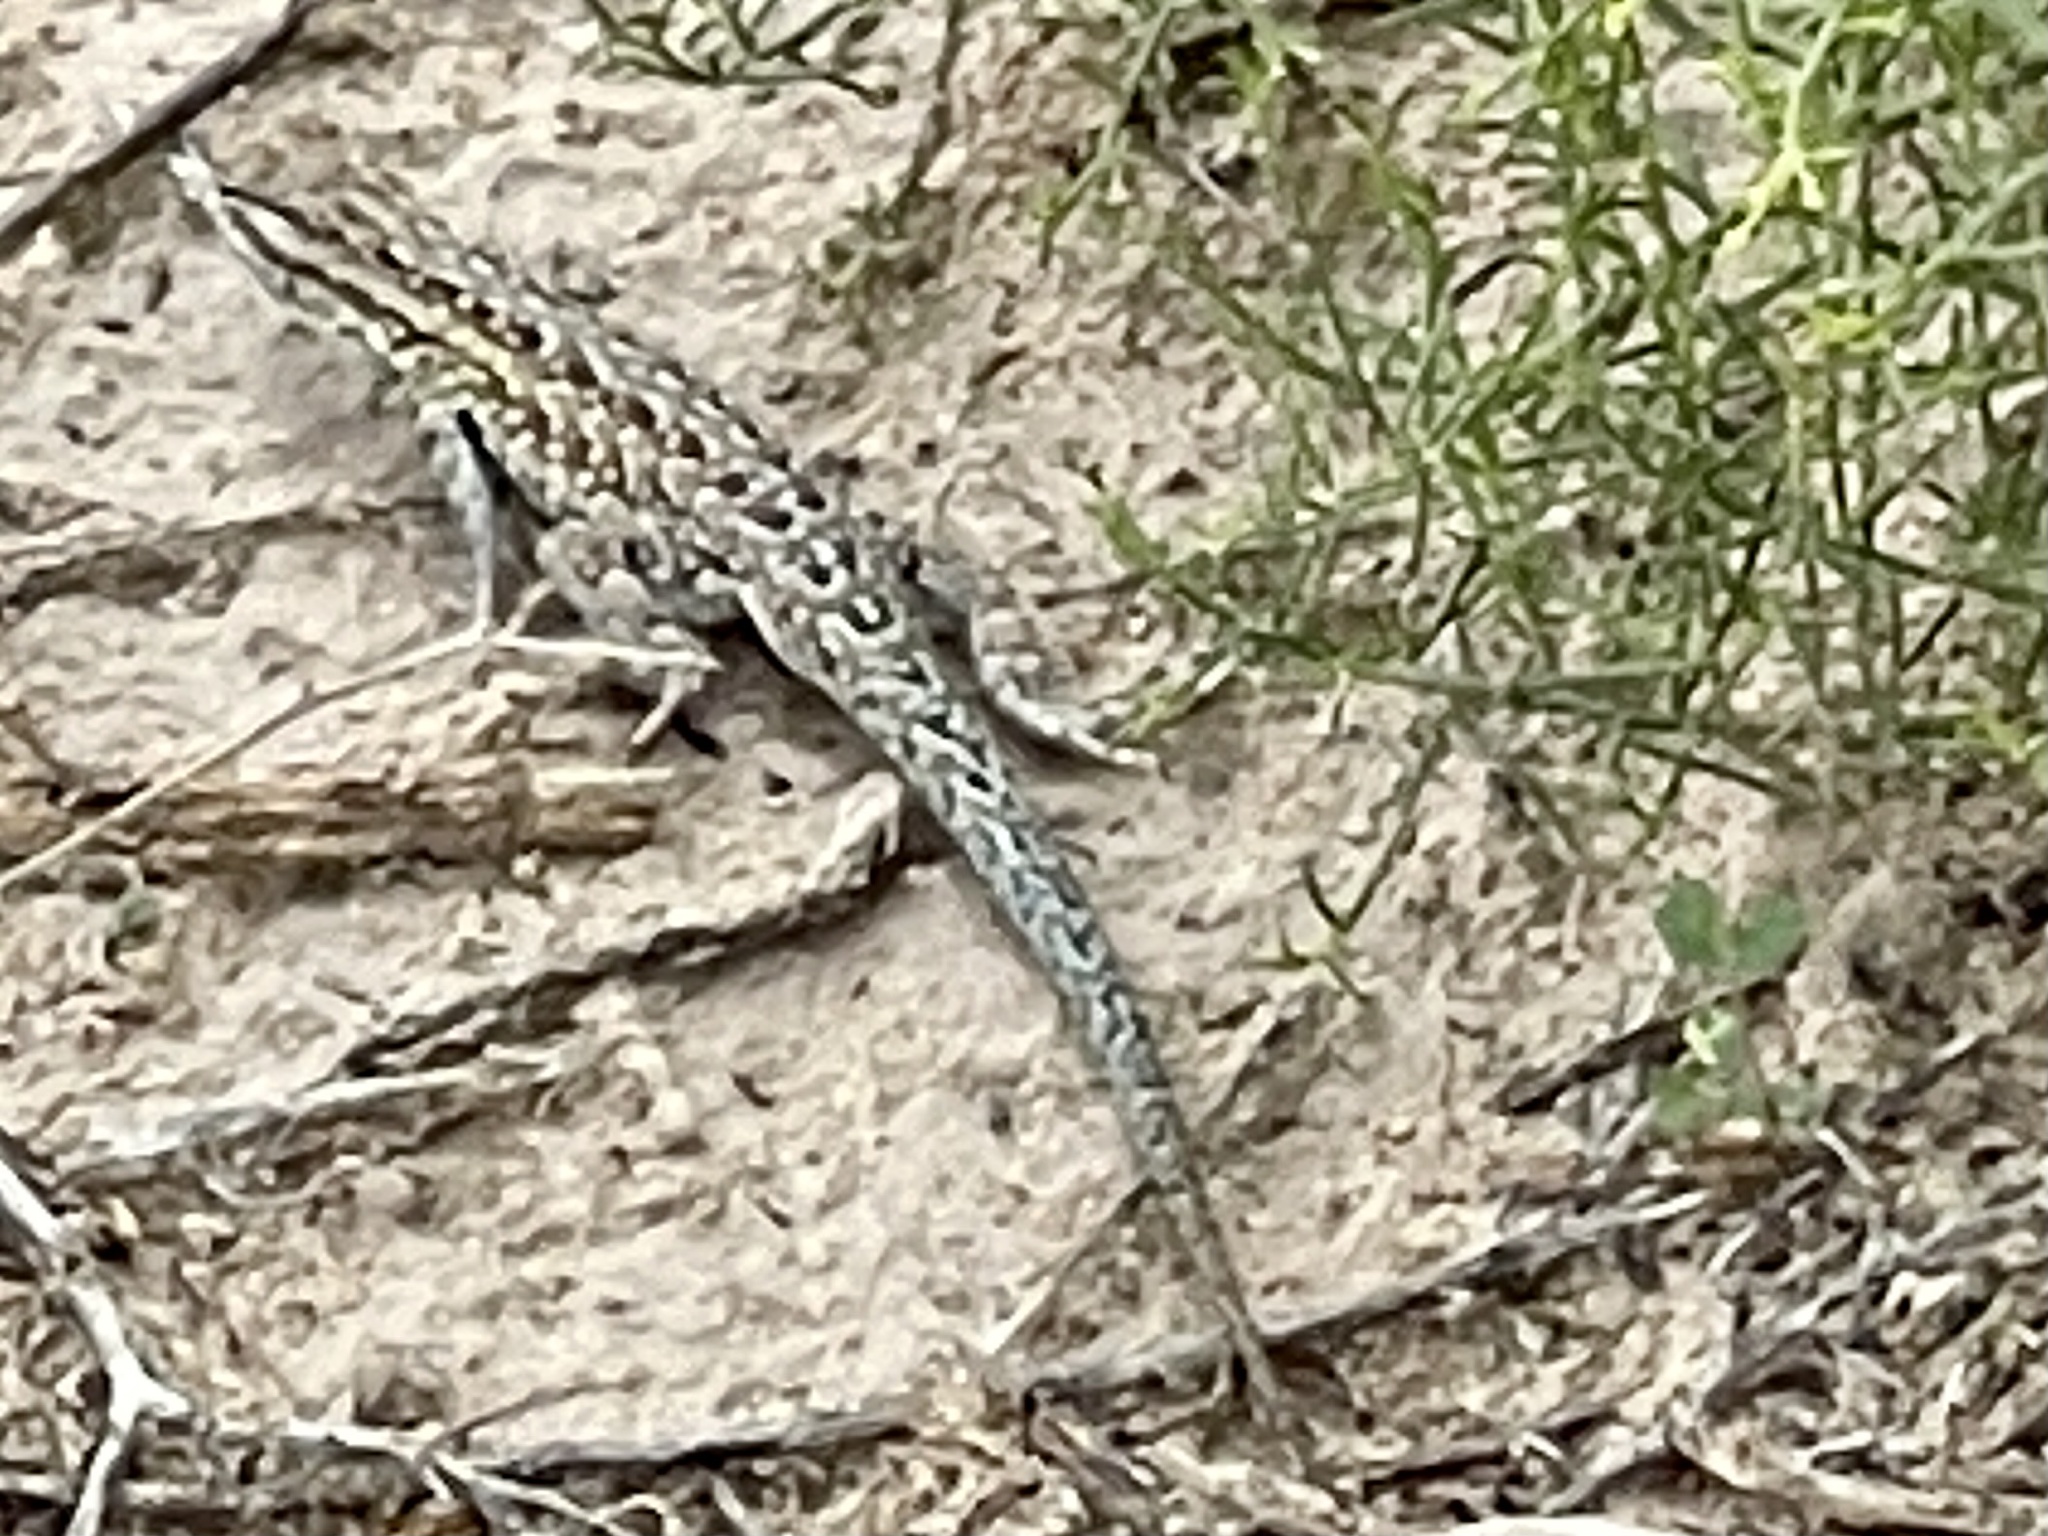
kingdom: Animalia
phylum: Chordata
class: Squamata
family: Phrynosomatidae
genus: Uta
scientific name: Uta stansburiana
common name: Side-blotched lizard
